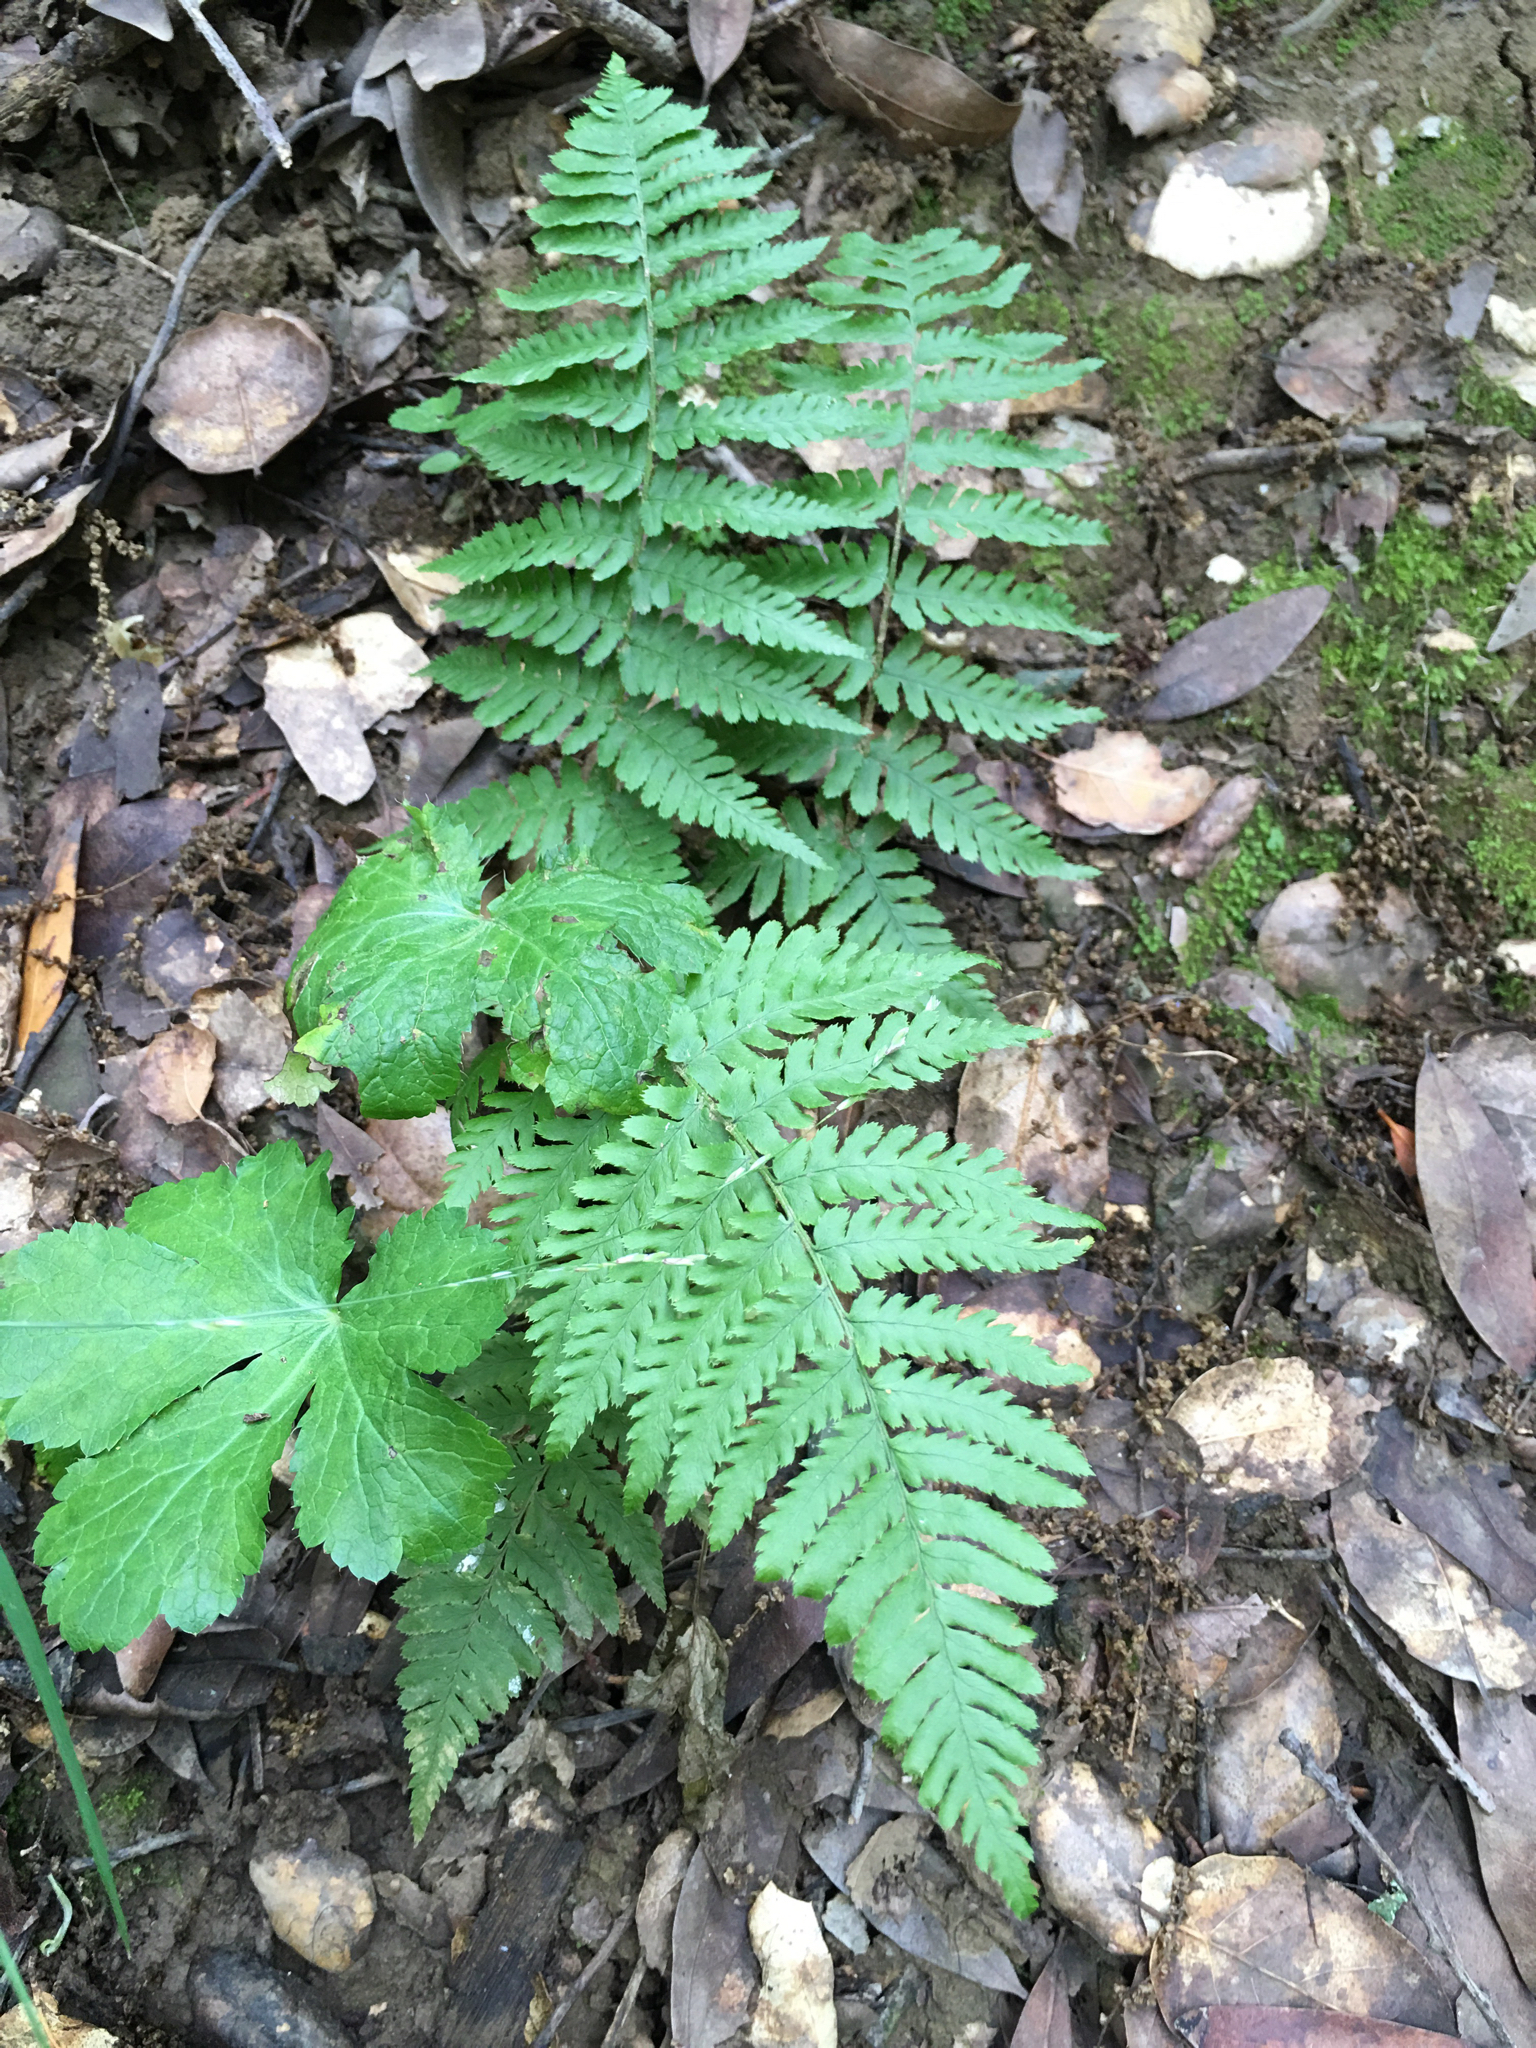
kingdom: Plantae
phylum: Tracheophyta
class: Polypodiopsida
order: Polypodiales
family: Dryopteridaceae
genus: Dryopteris
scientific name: Dryopteris arguta
